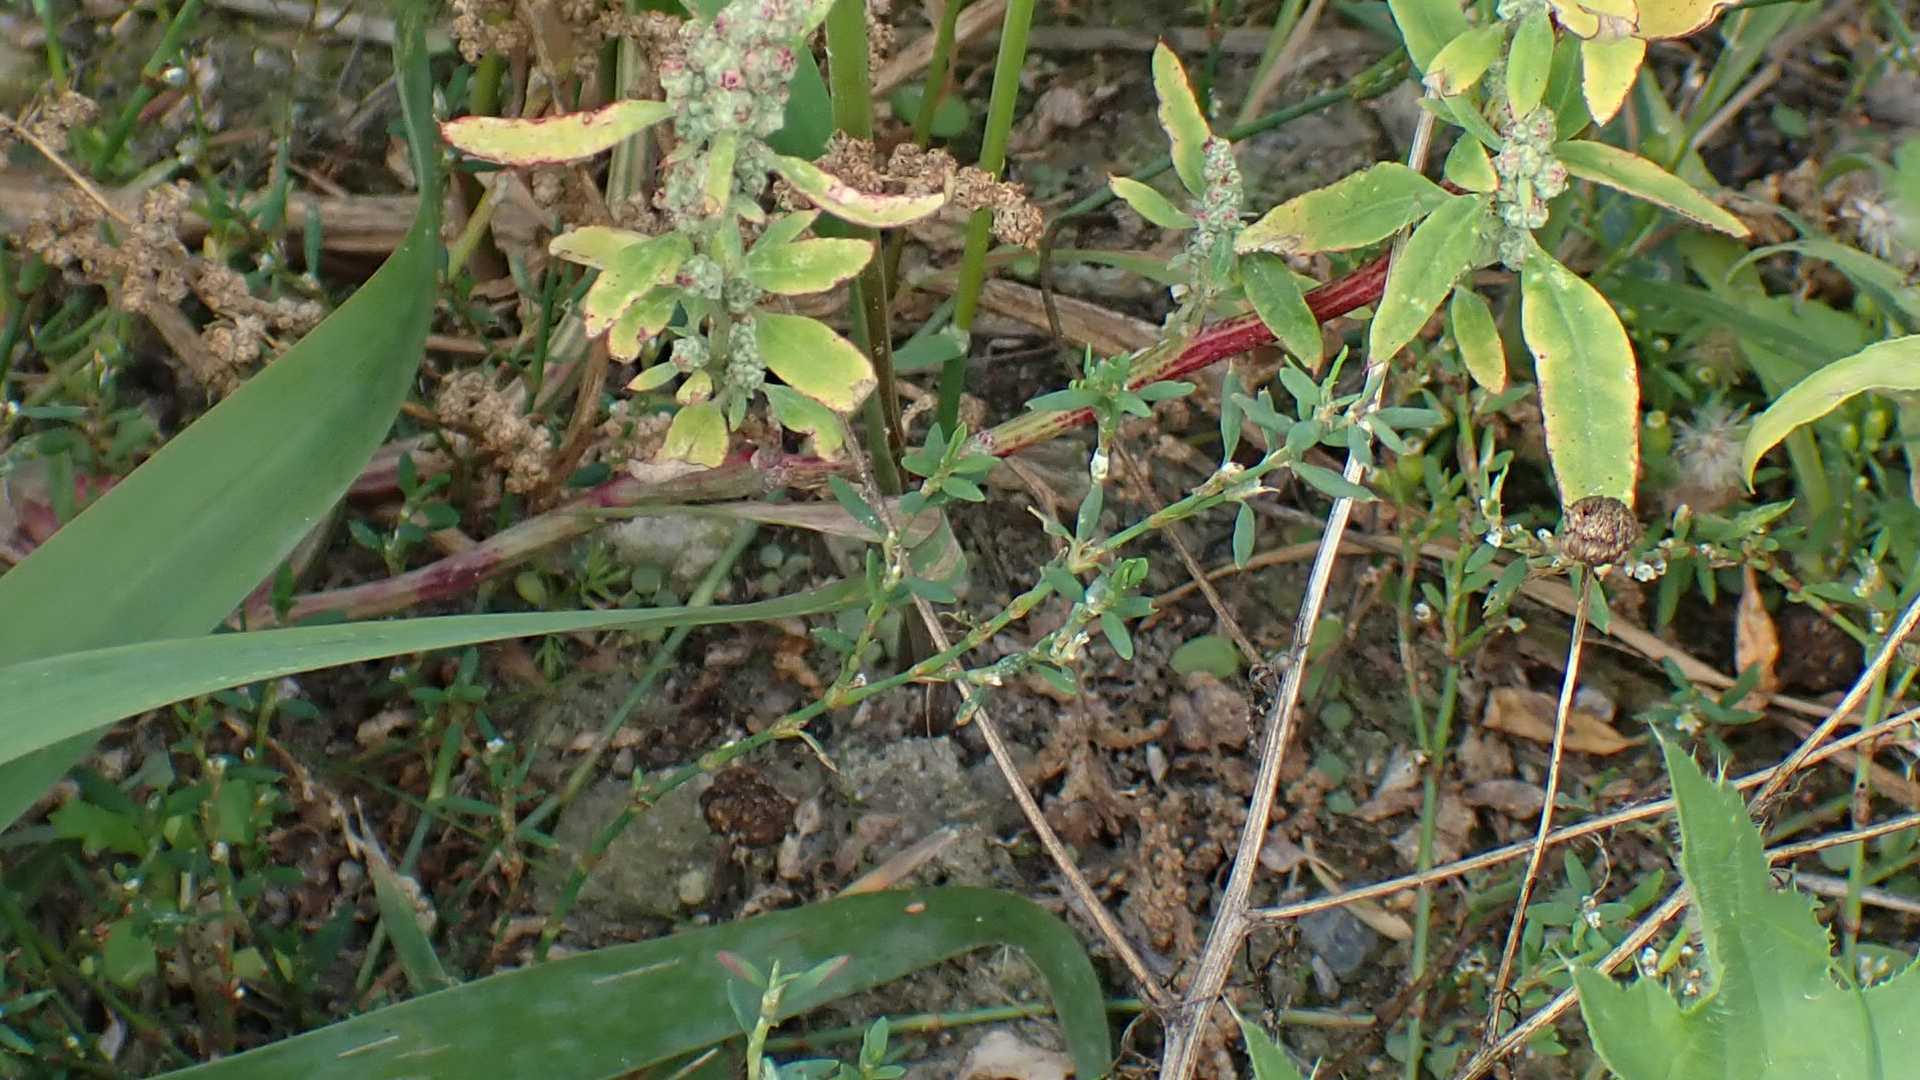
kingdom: Plantae
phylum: Tracheophyta
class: Magnoliopsida
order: Caryophyllales
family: Polygonaceae
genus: Polygonum
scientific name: Polygonum
